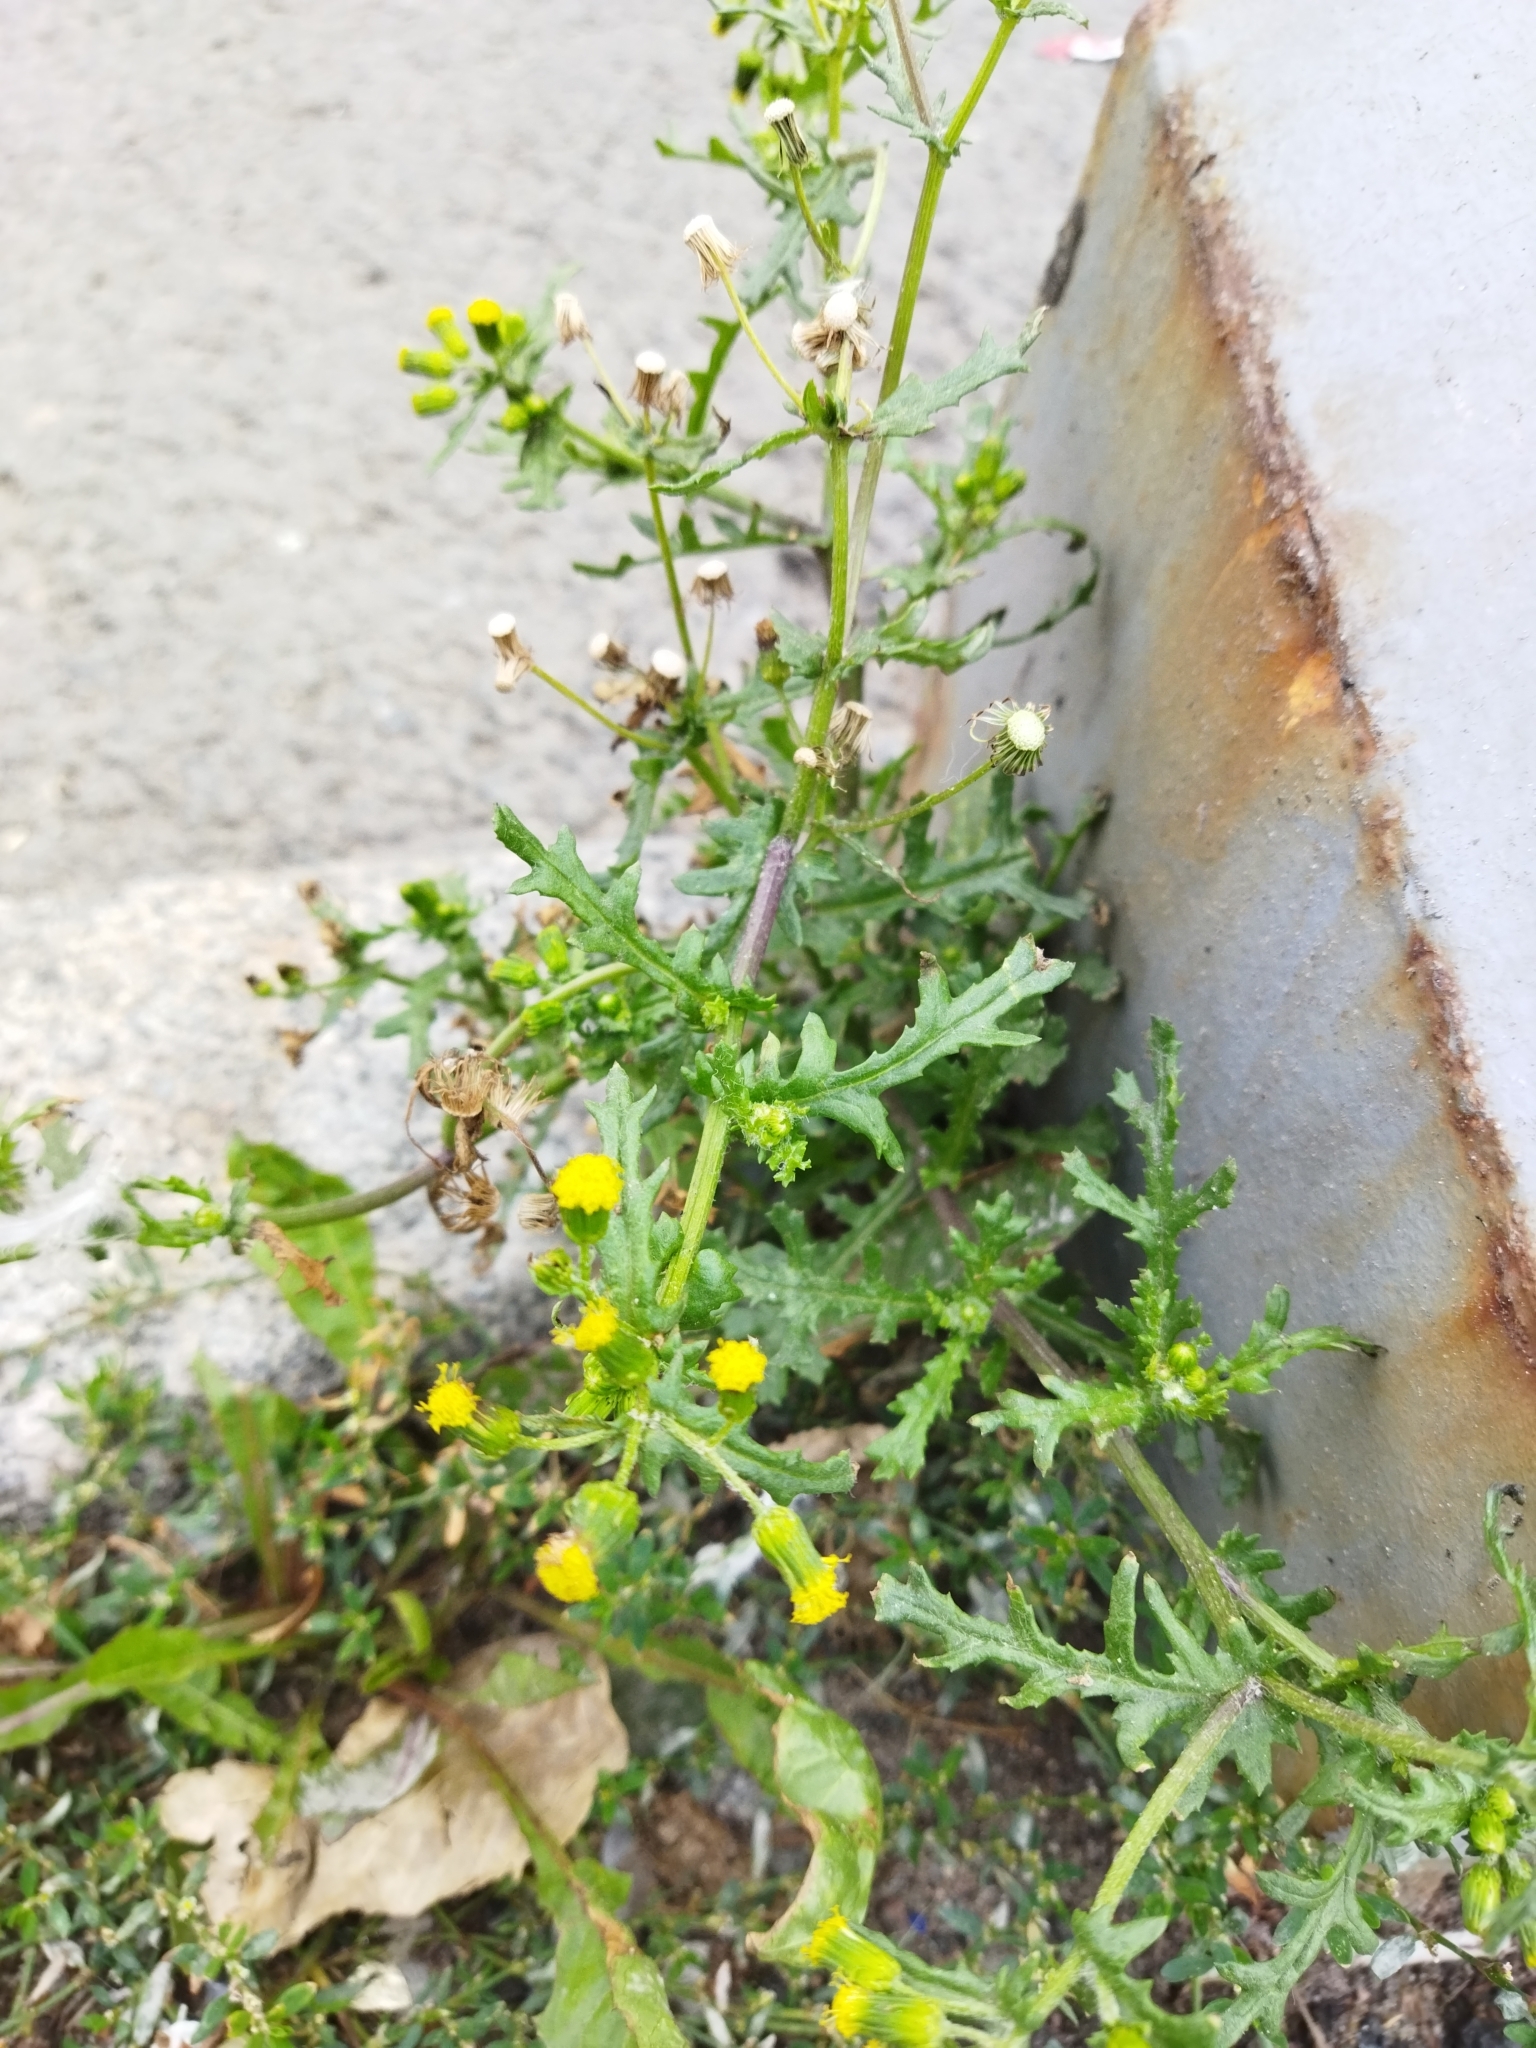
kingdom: Plantae
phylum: Tracheophyta
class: Magnoliopsida
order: Asterales
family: Asteraceae
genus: Senecio
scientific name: Senecio vulgaris
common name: Old-man-in-the-spring
